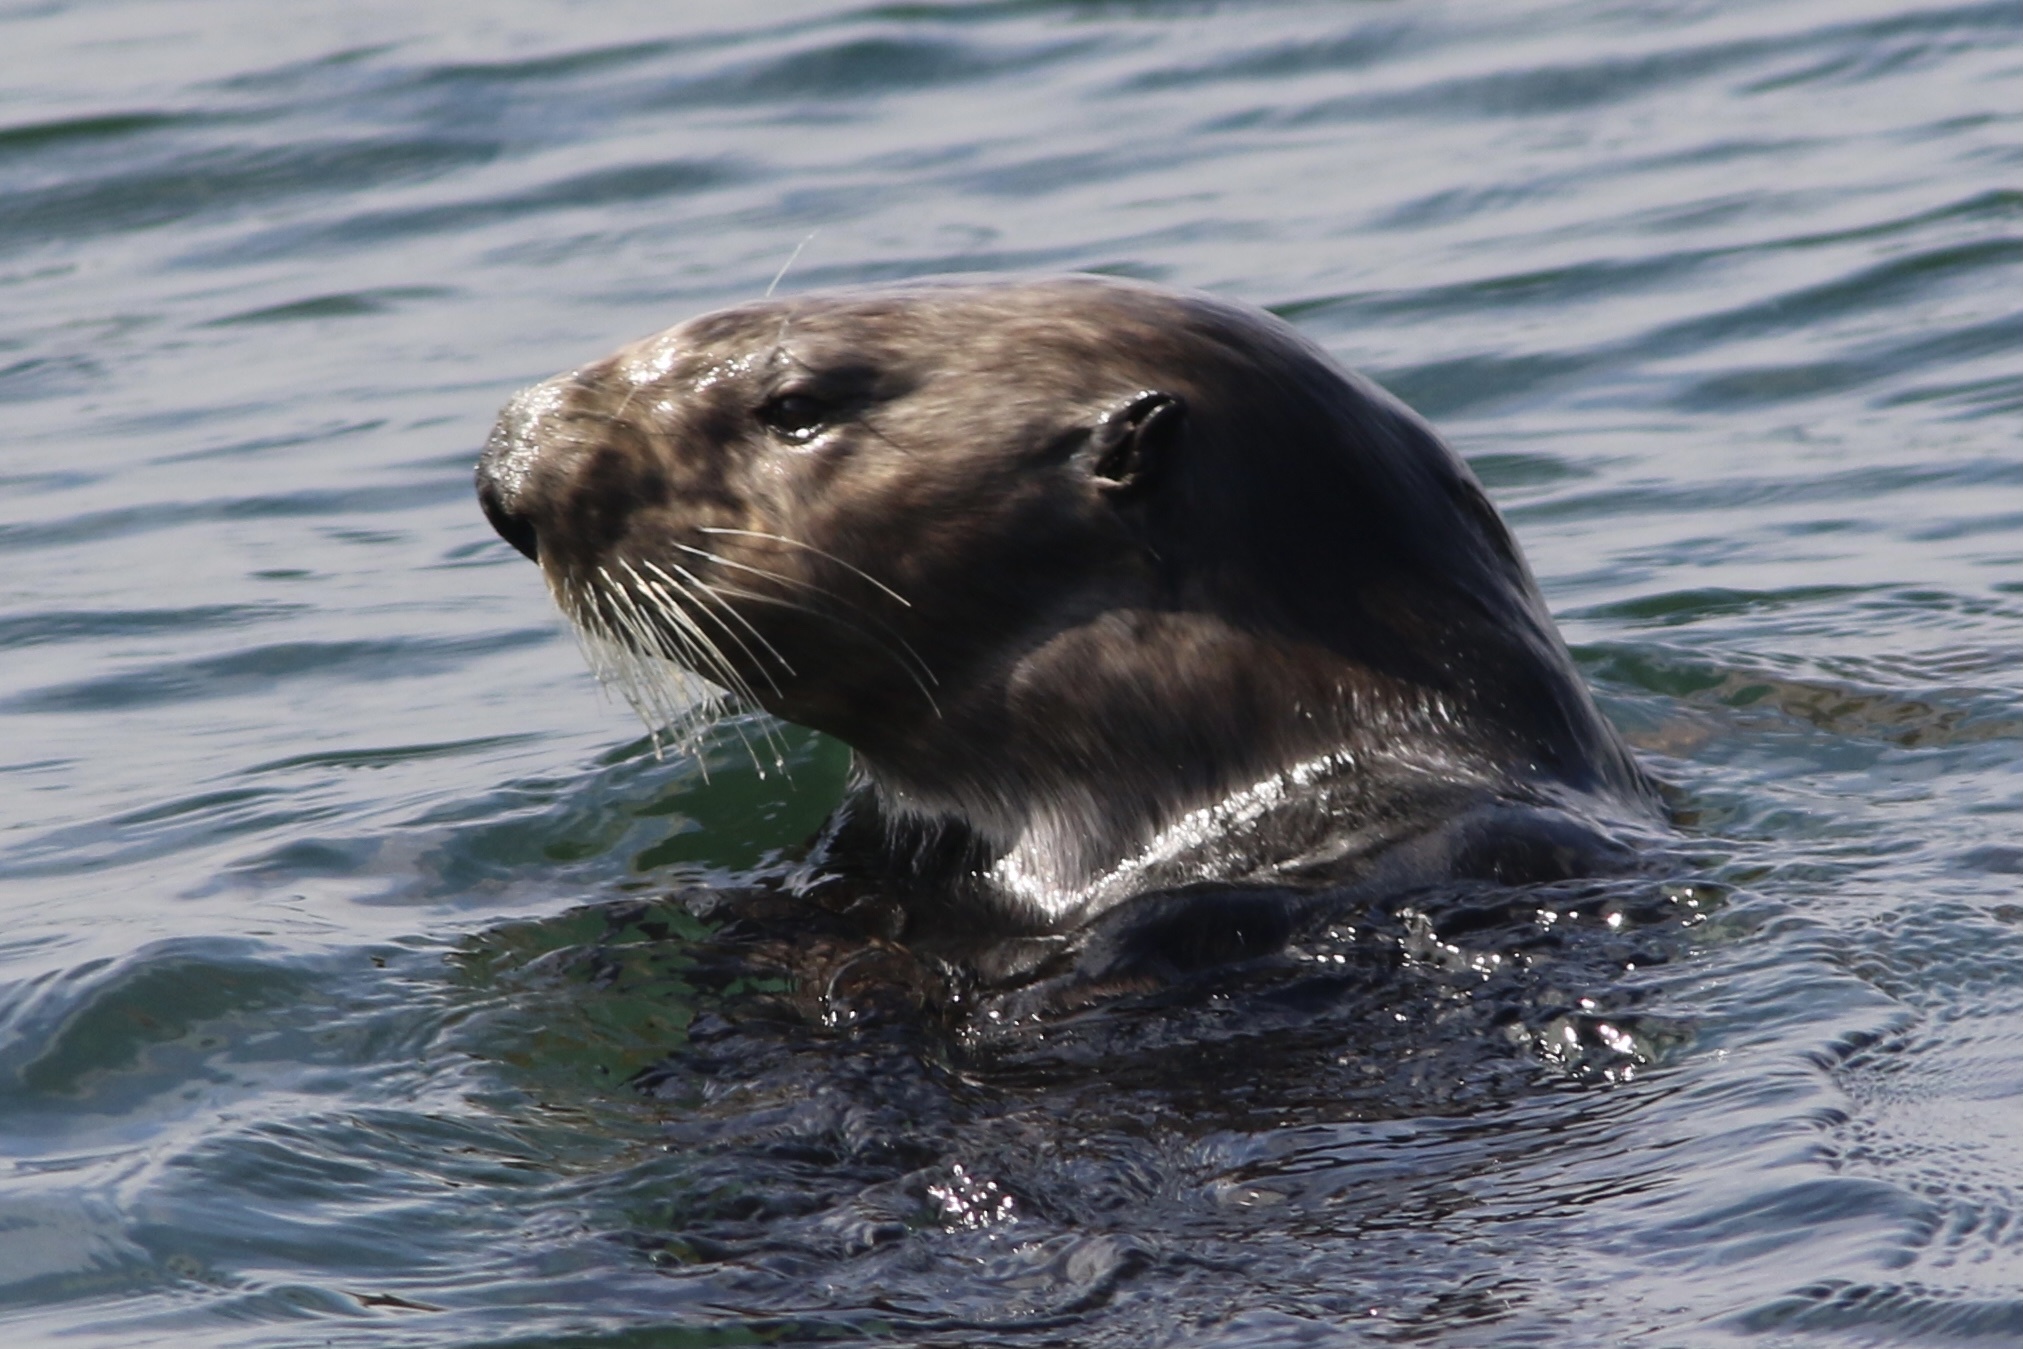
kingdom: Animalia
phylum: Chordata
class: Mammalia
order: Carnivora
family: Mustelidae
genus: Enhydra
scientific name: Enhydra lutris
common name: Sea otter
